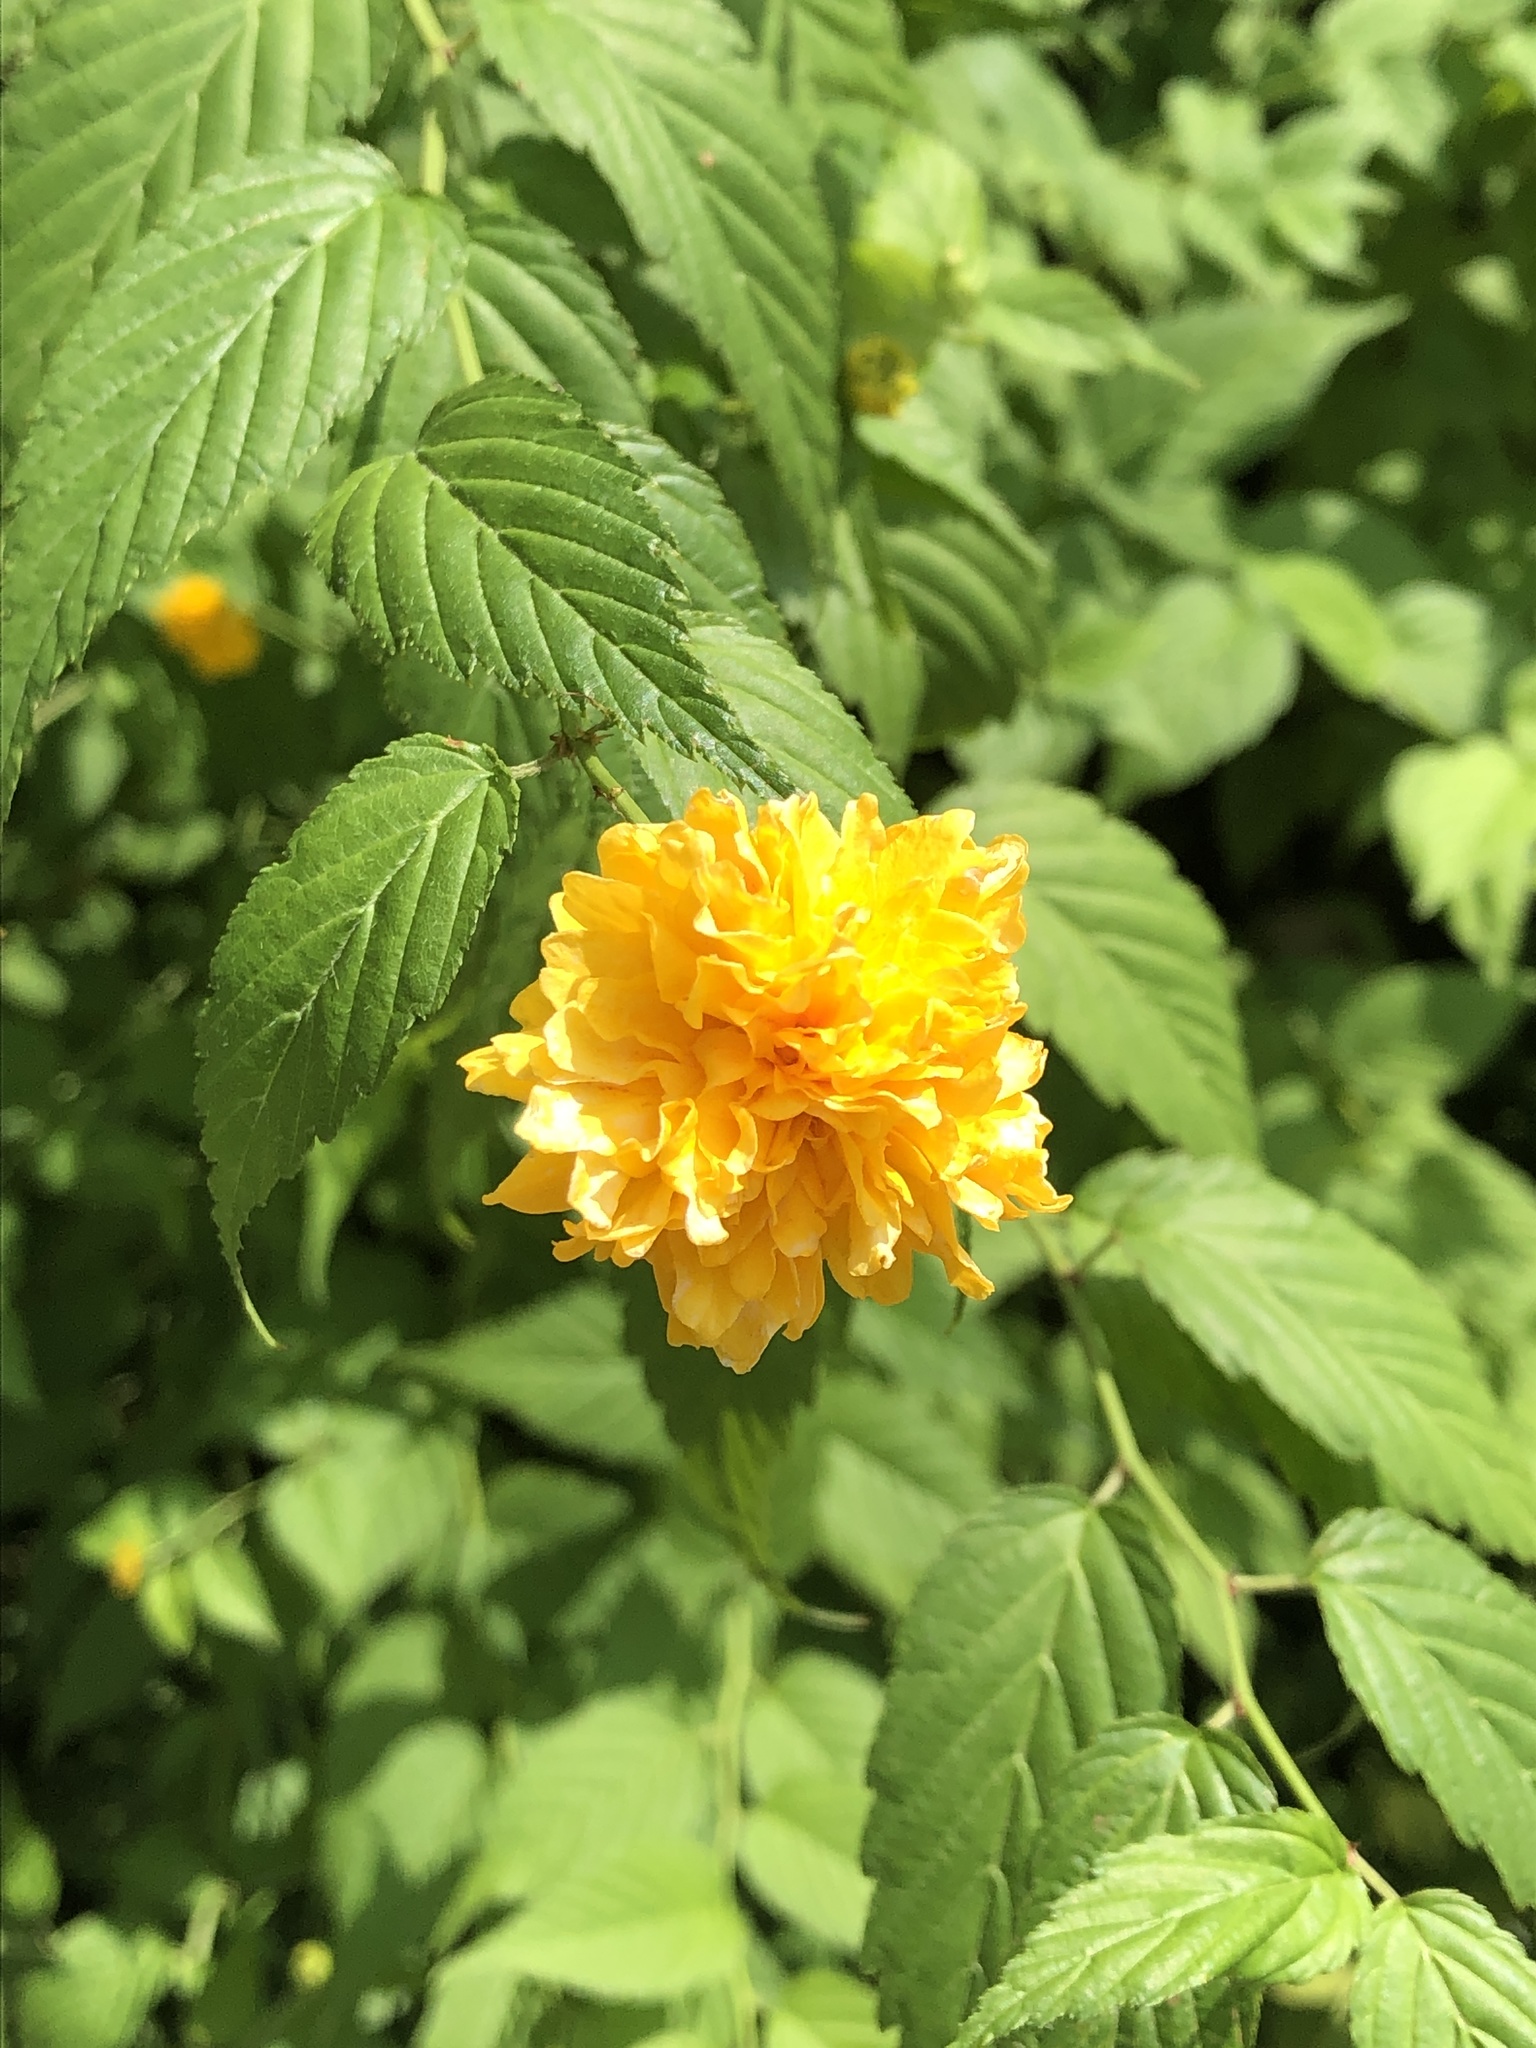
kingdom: Plantae
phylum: Tracheophyta
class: Magnoliopsida
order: Rosales
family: Rosaceae
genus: Kerria
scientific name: Kerria japonica
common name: Japanese kerria
